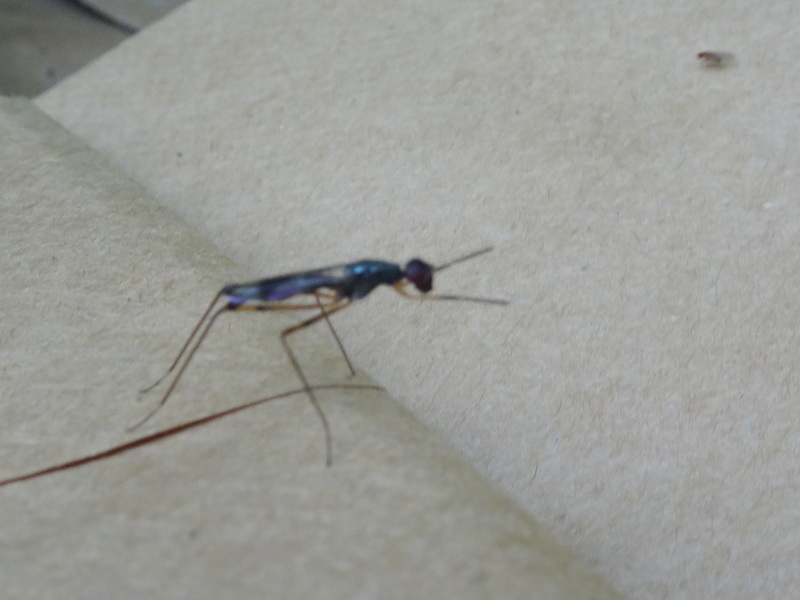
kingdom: Animalia
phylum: Arthropoda
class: Insecta
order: Diptera
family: Micropezidae
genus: Rainieria
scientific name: Rainieria antennaepes
